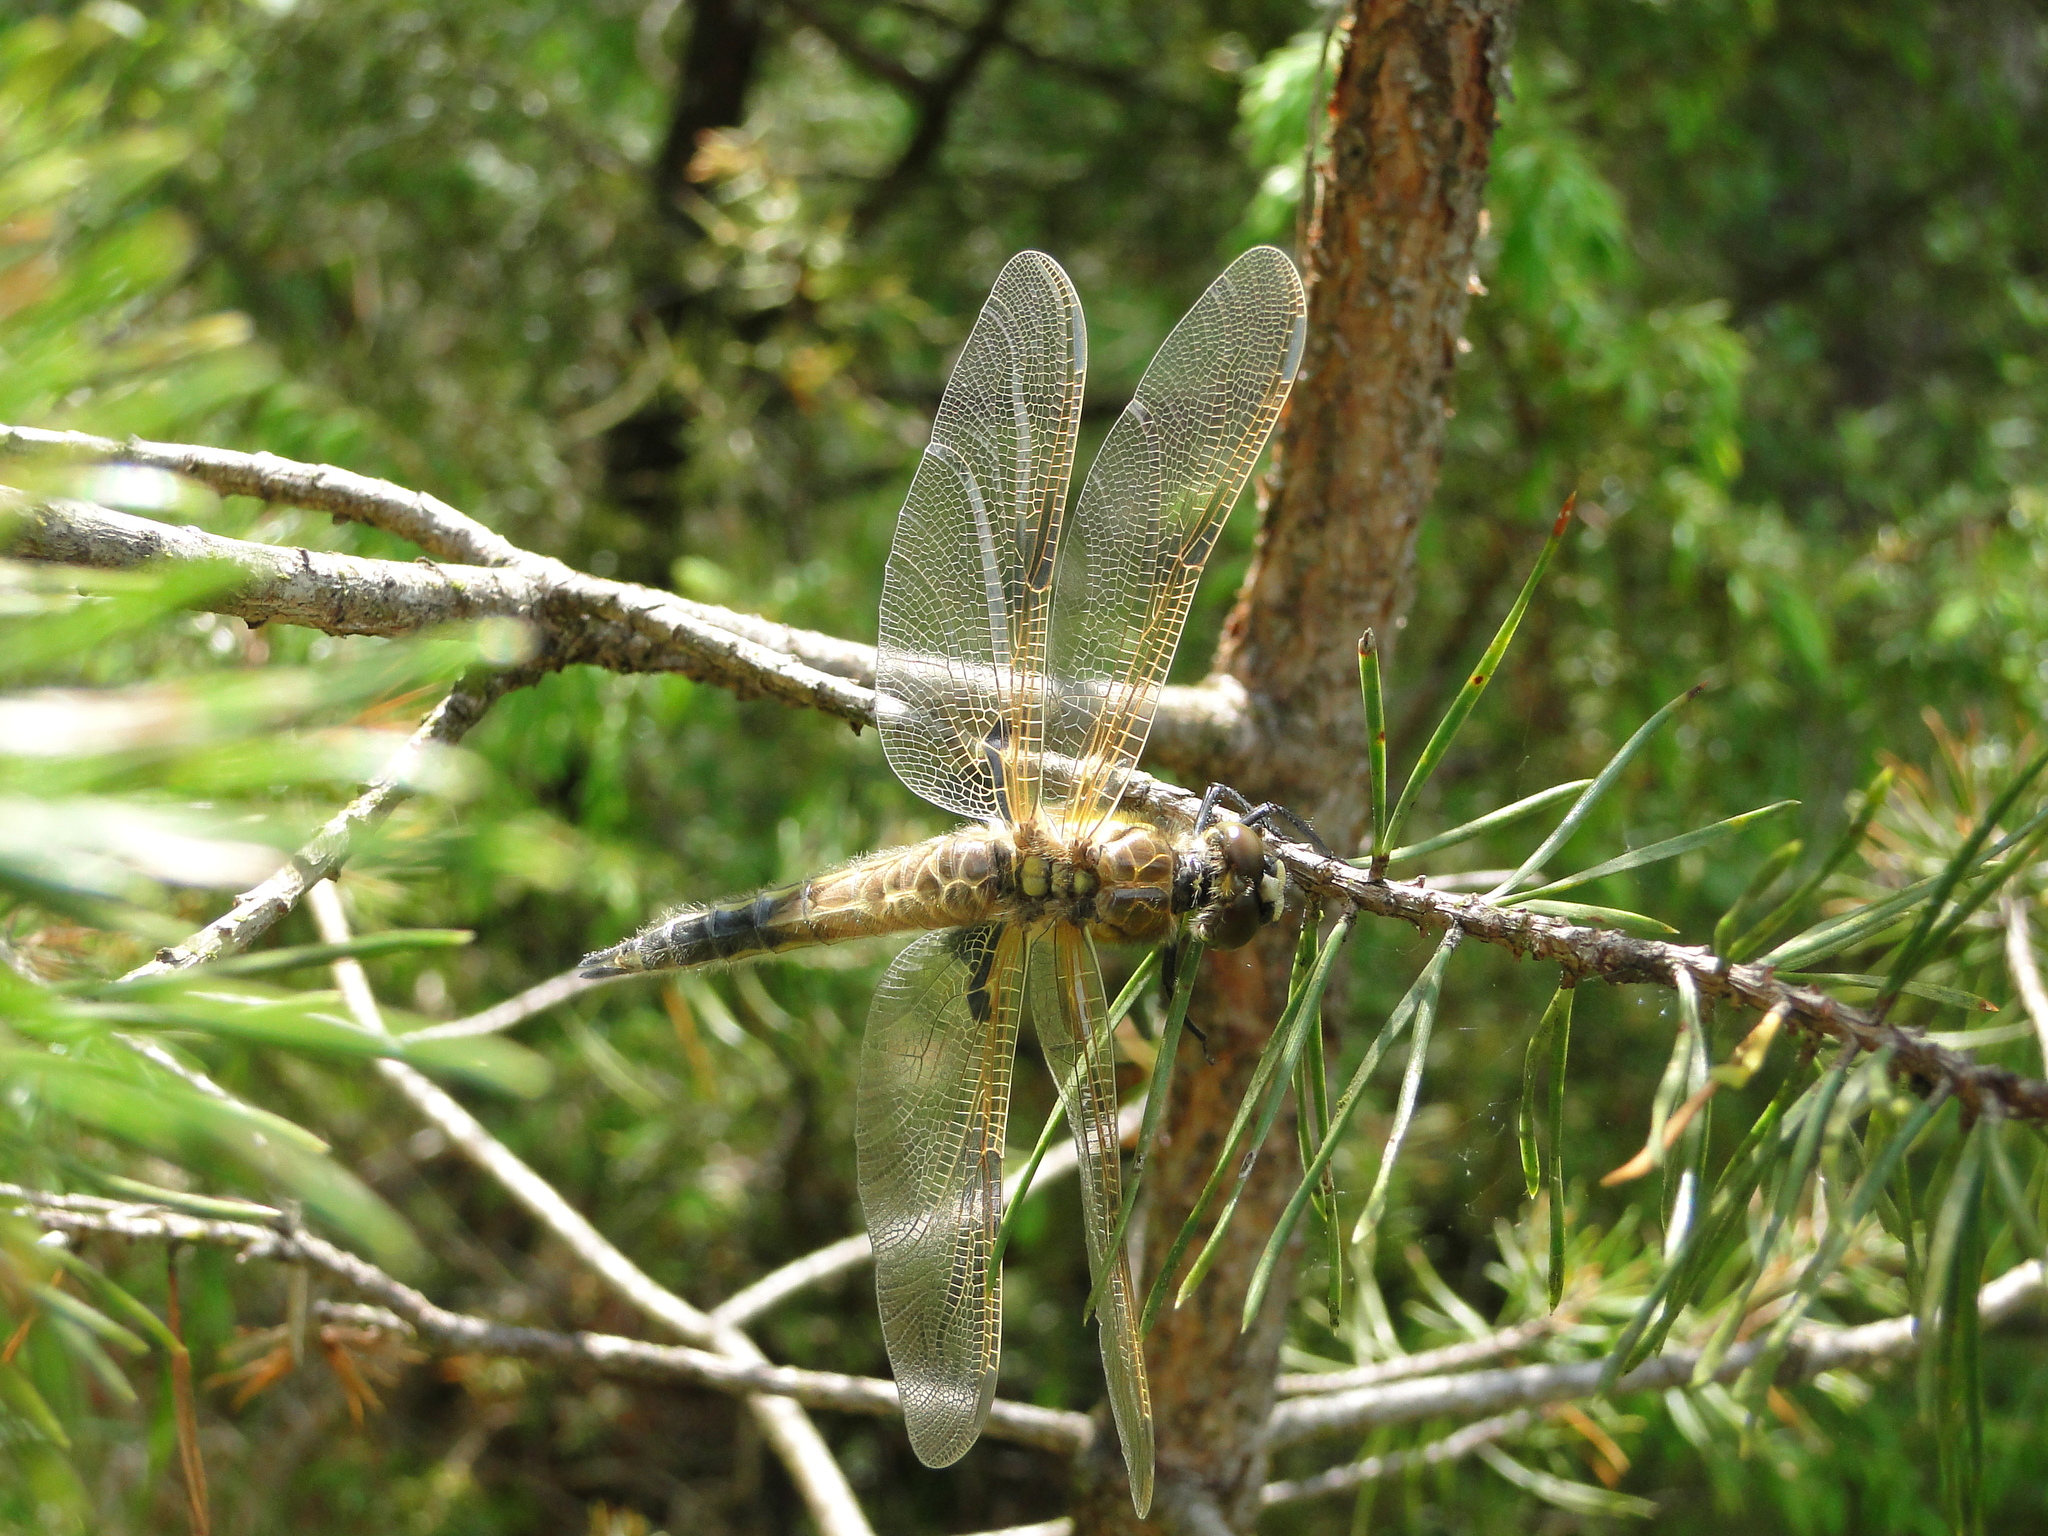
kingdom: Animalia
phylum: Arthropoda
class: Insecta
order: Odonata
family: Libellulidae
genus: Libellula
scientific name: Libellula quadrimaculata
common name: Four-spotted chaser
